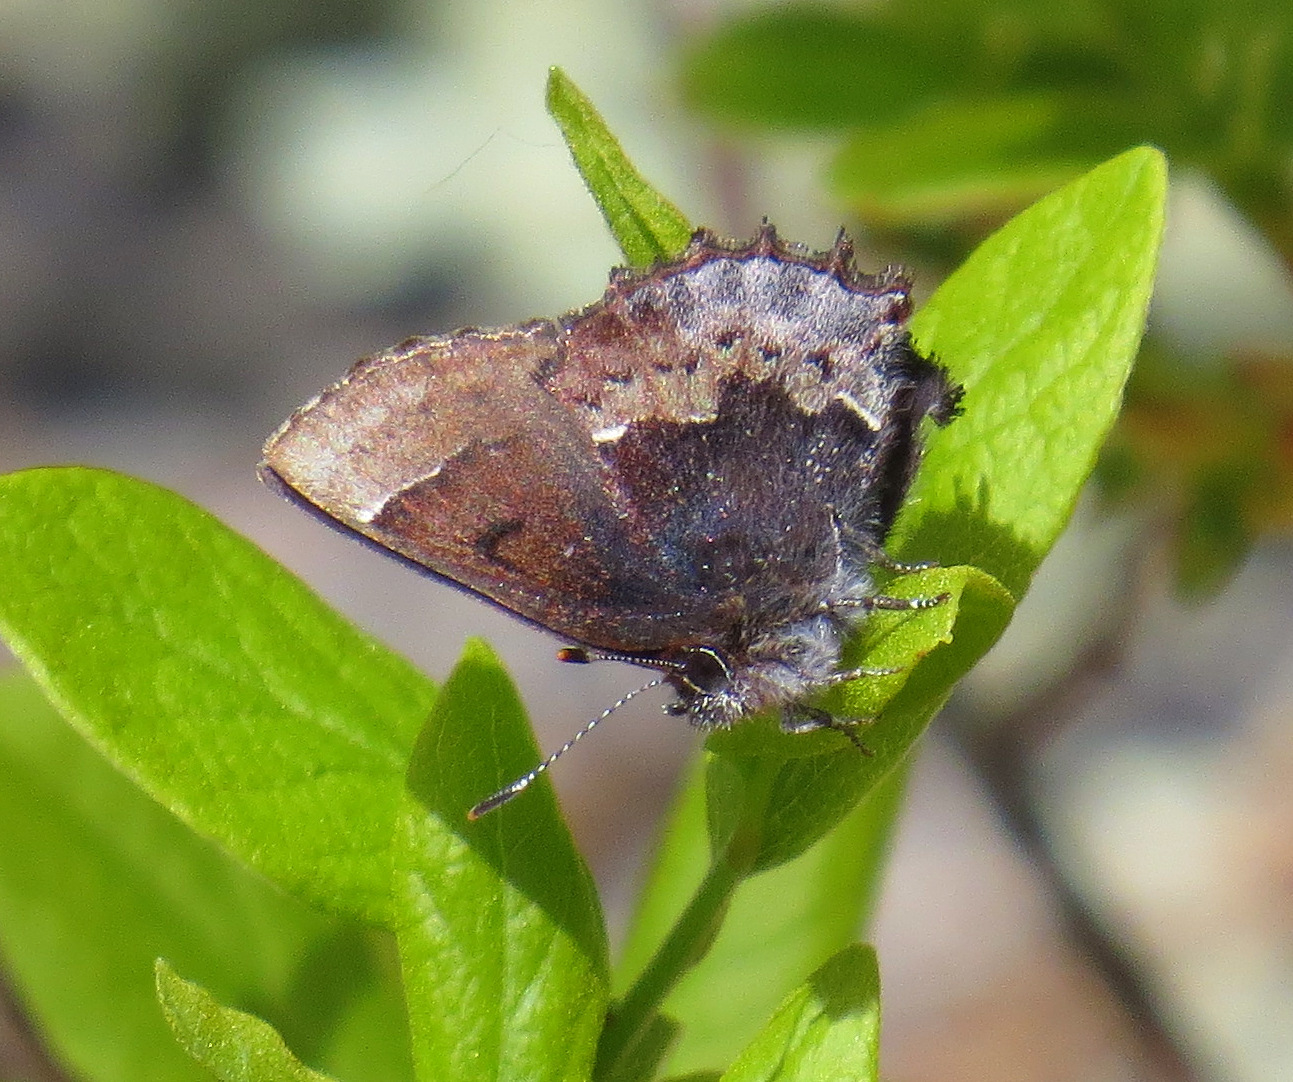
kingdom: Animalia
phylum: Arthropoda
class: Insecta
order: Lepidoptera
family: Lycaenidae
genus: Incisalia
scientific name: Incisalia henrici
